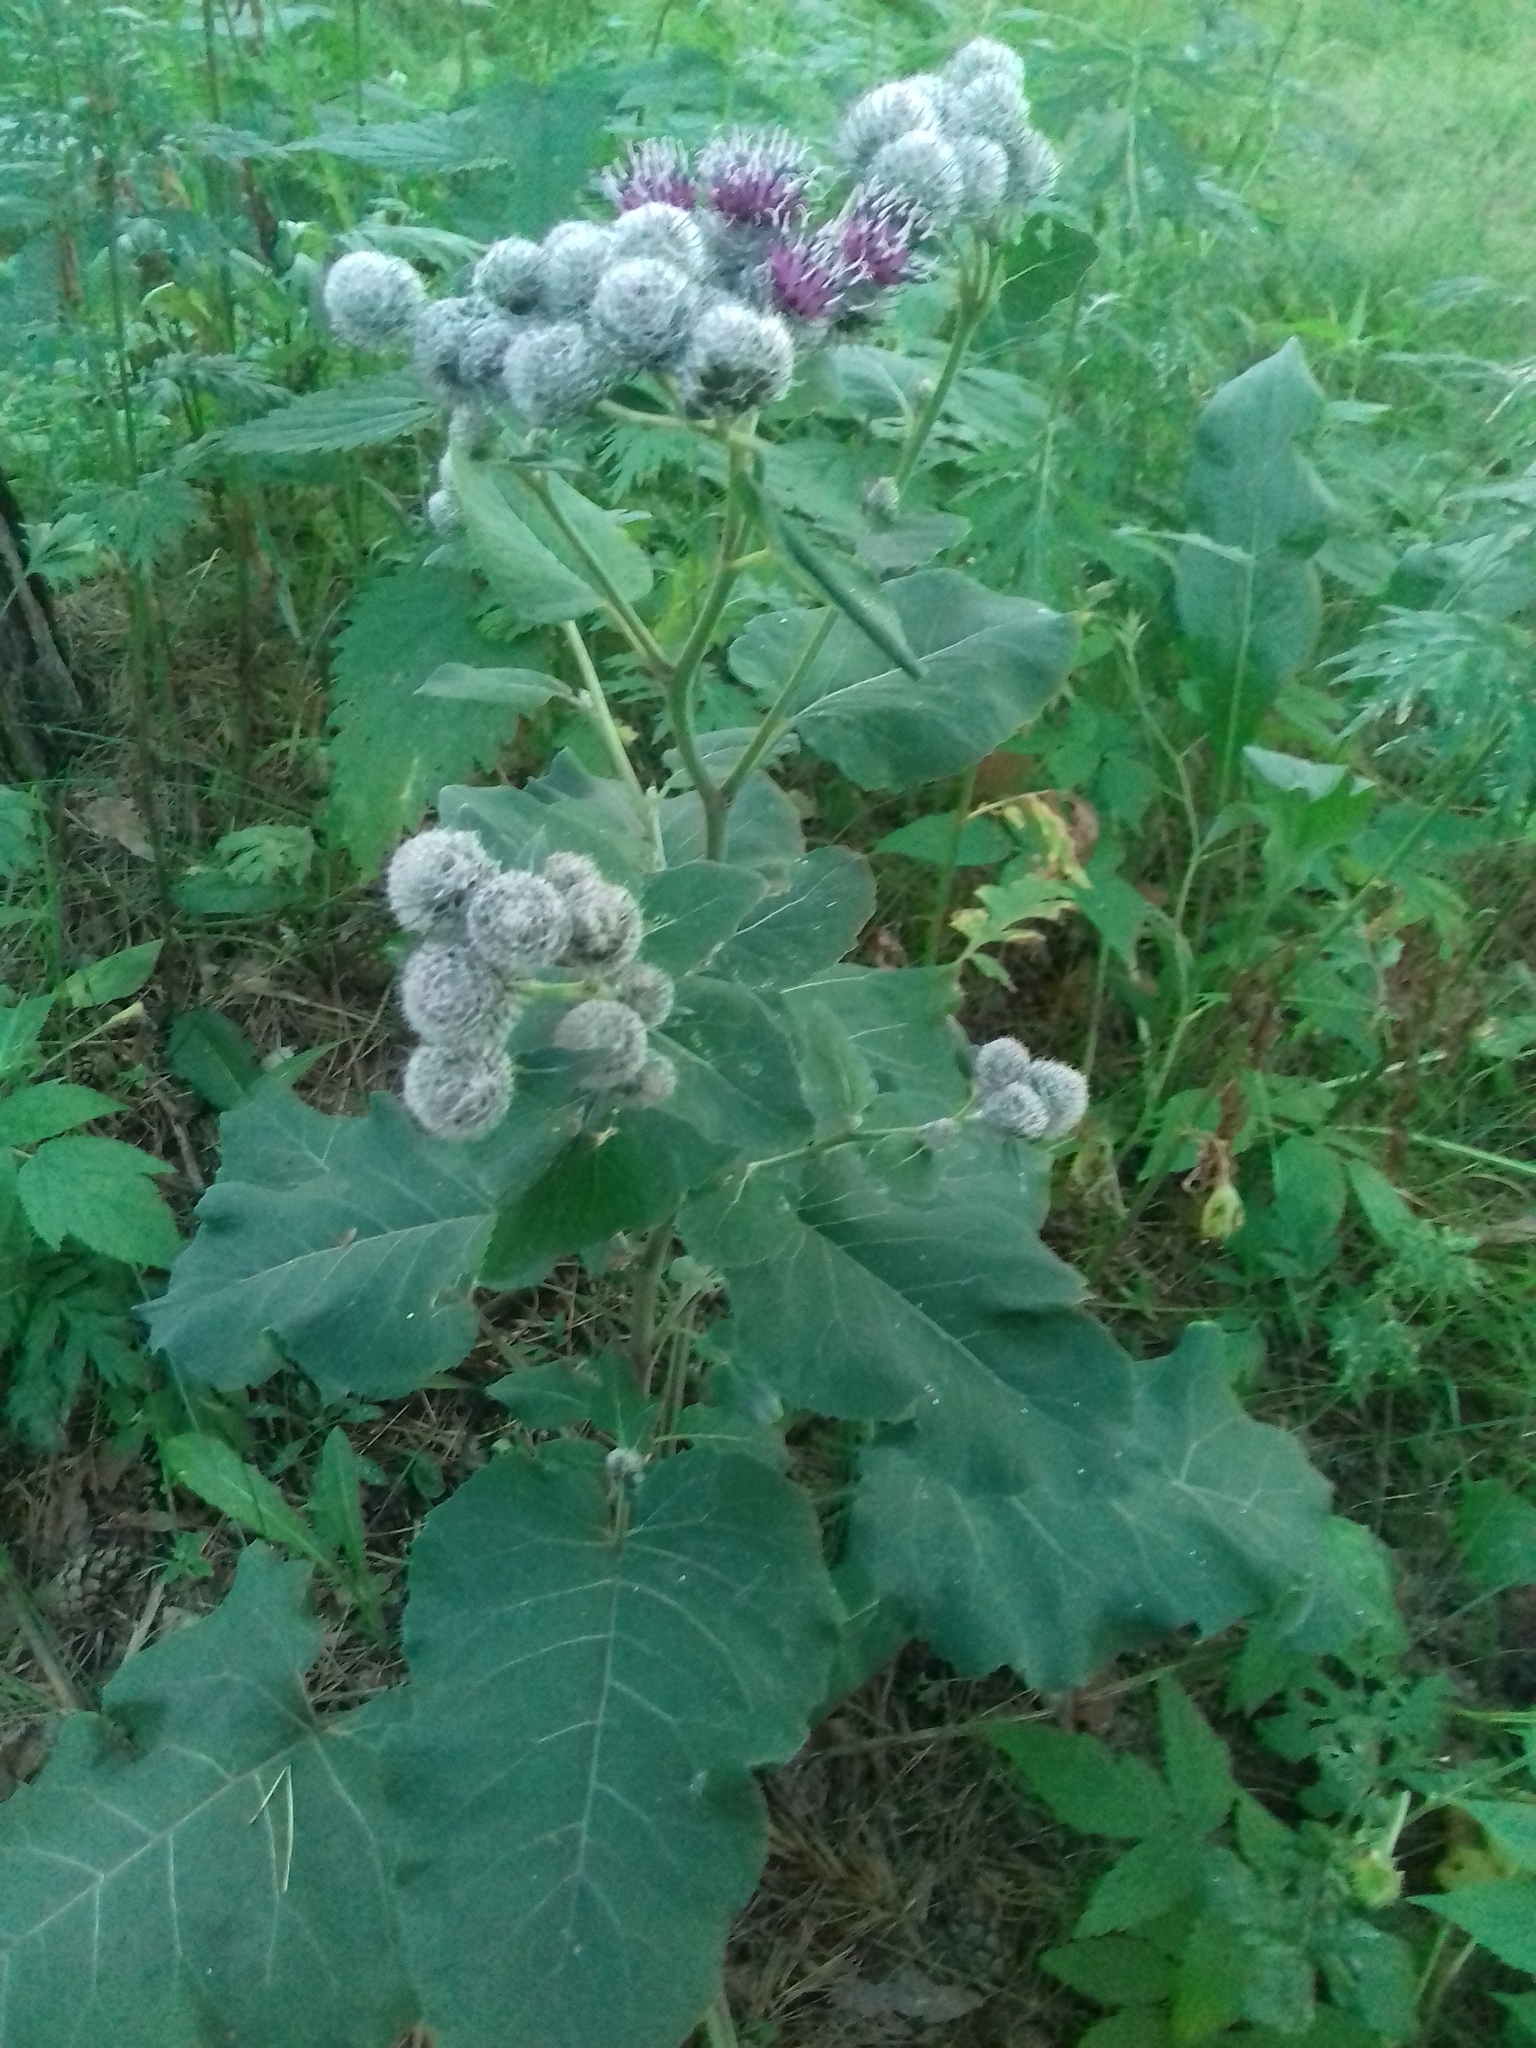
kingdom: Plantae
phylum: Tracheophyta
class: Magnoliopsida
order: Asterales
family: Asteraceae
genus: Arctium
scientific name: Arctium tomentosum
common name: Woolly burdock
